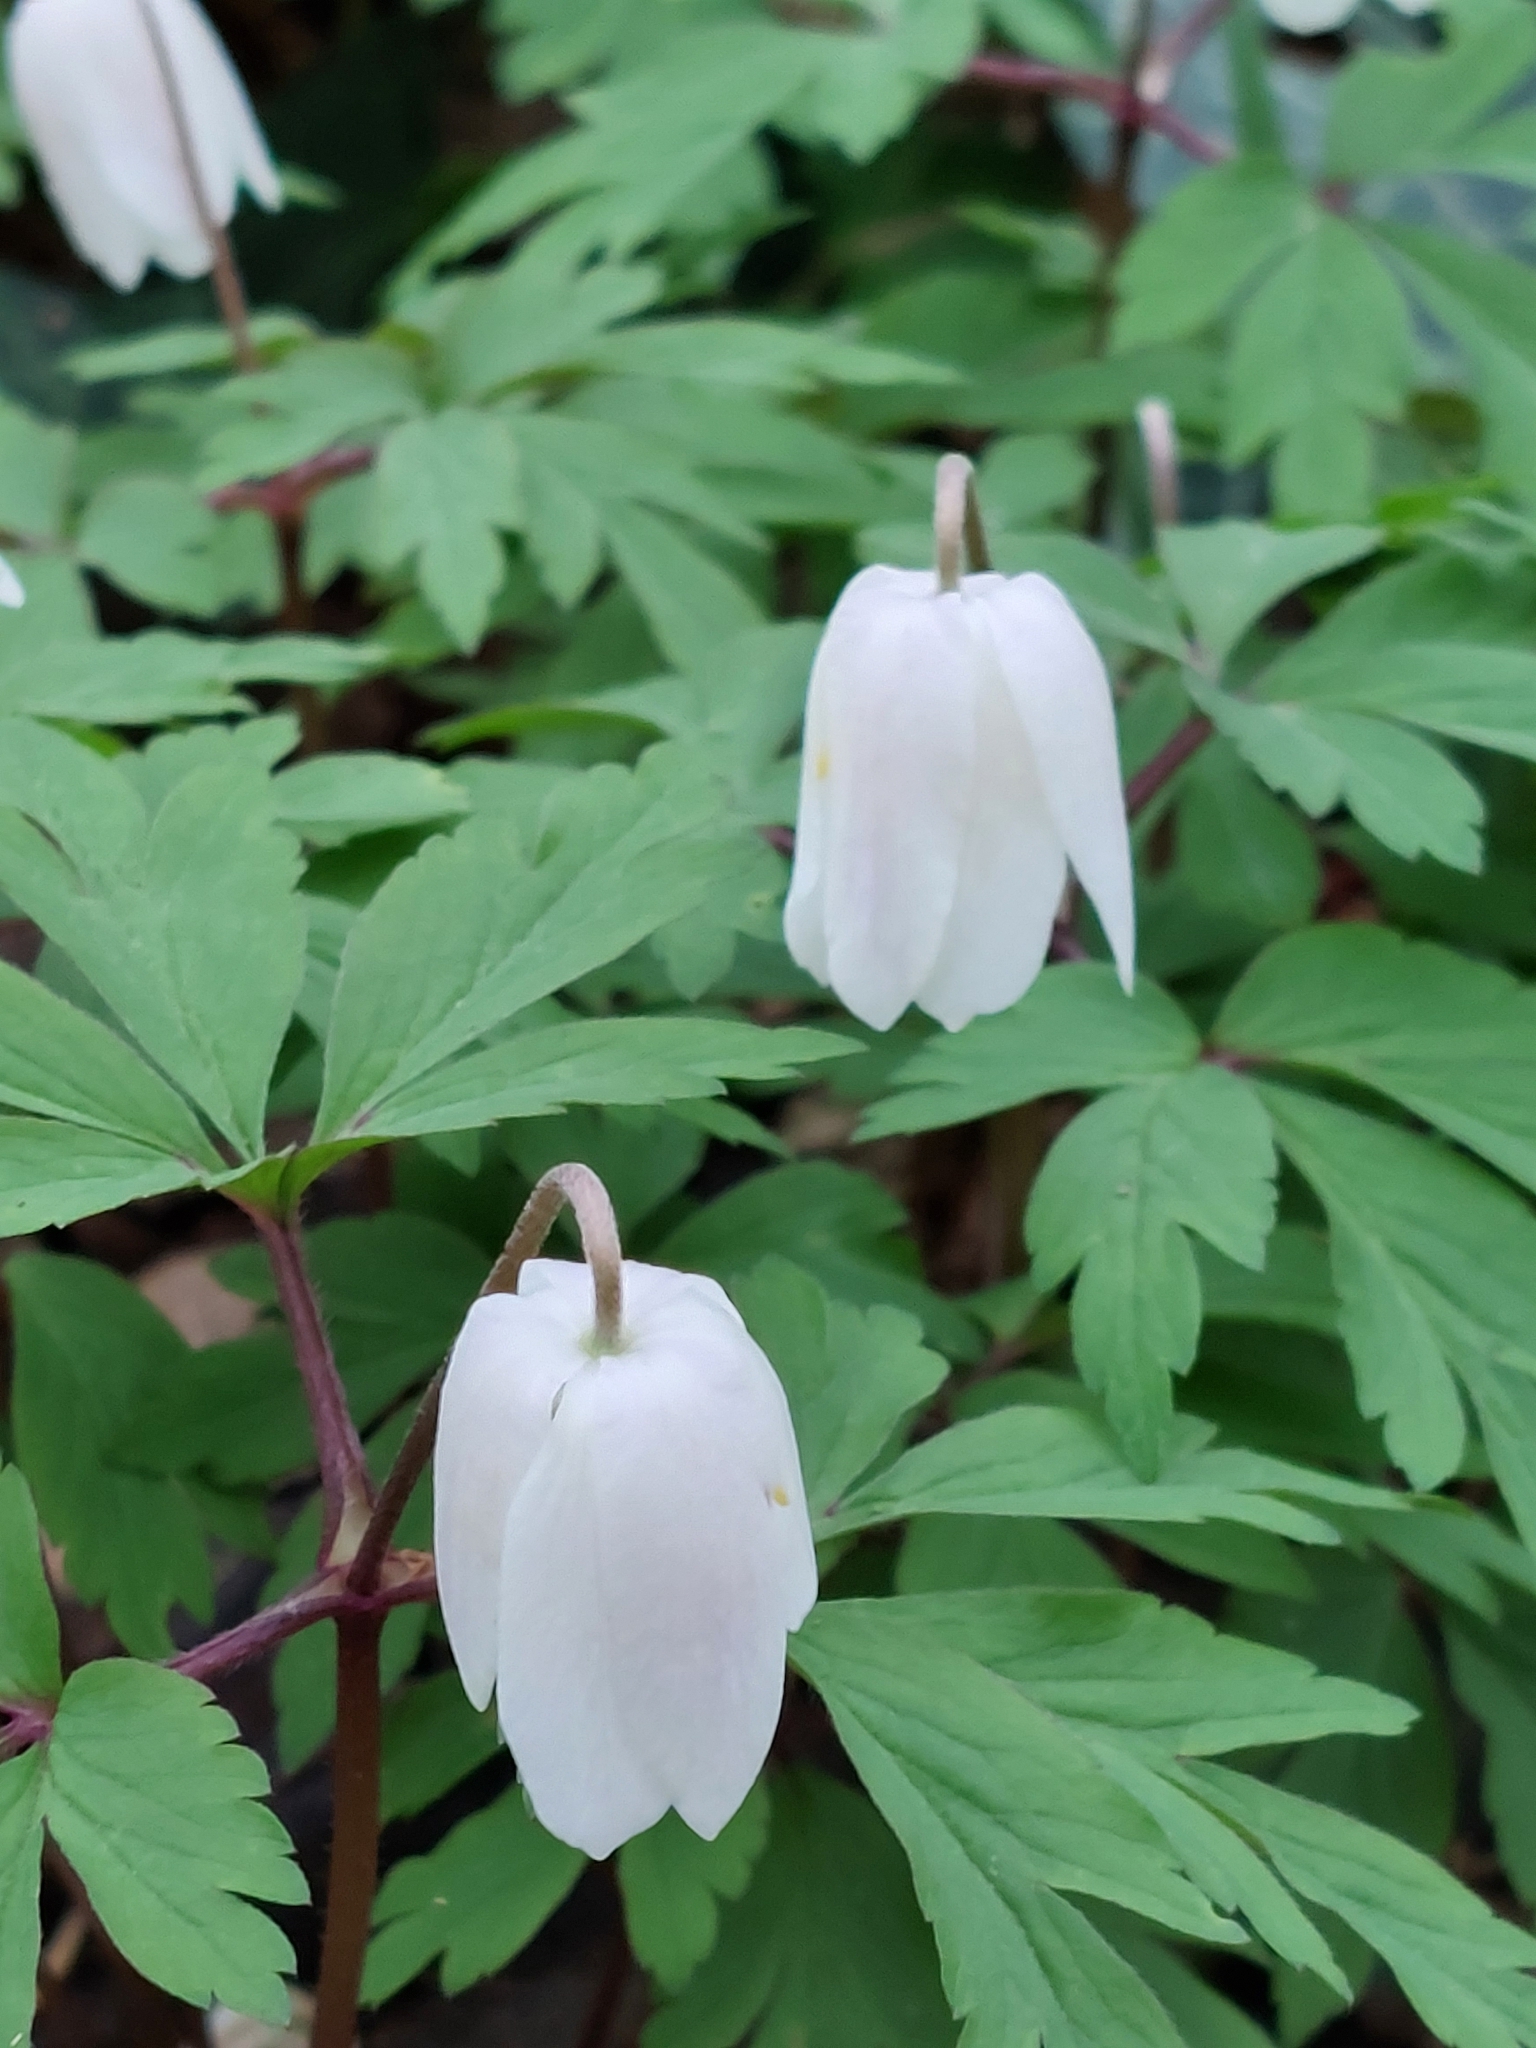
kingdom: Plantae
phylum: Tracheophyta
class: Magnoliopsida
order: Ranunculales
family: Ranunculaceae
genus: Anemone
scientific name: Anemone nemorosa
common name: Wood anemone
